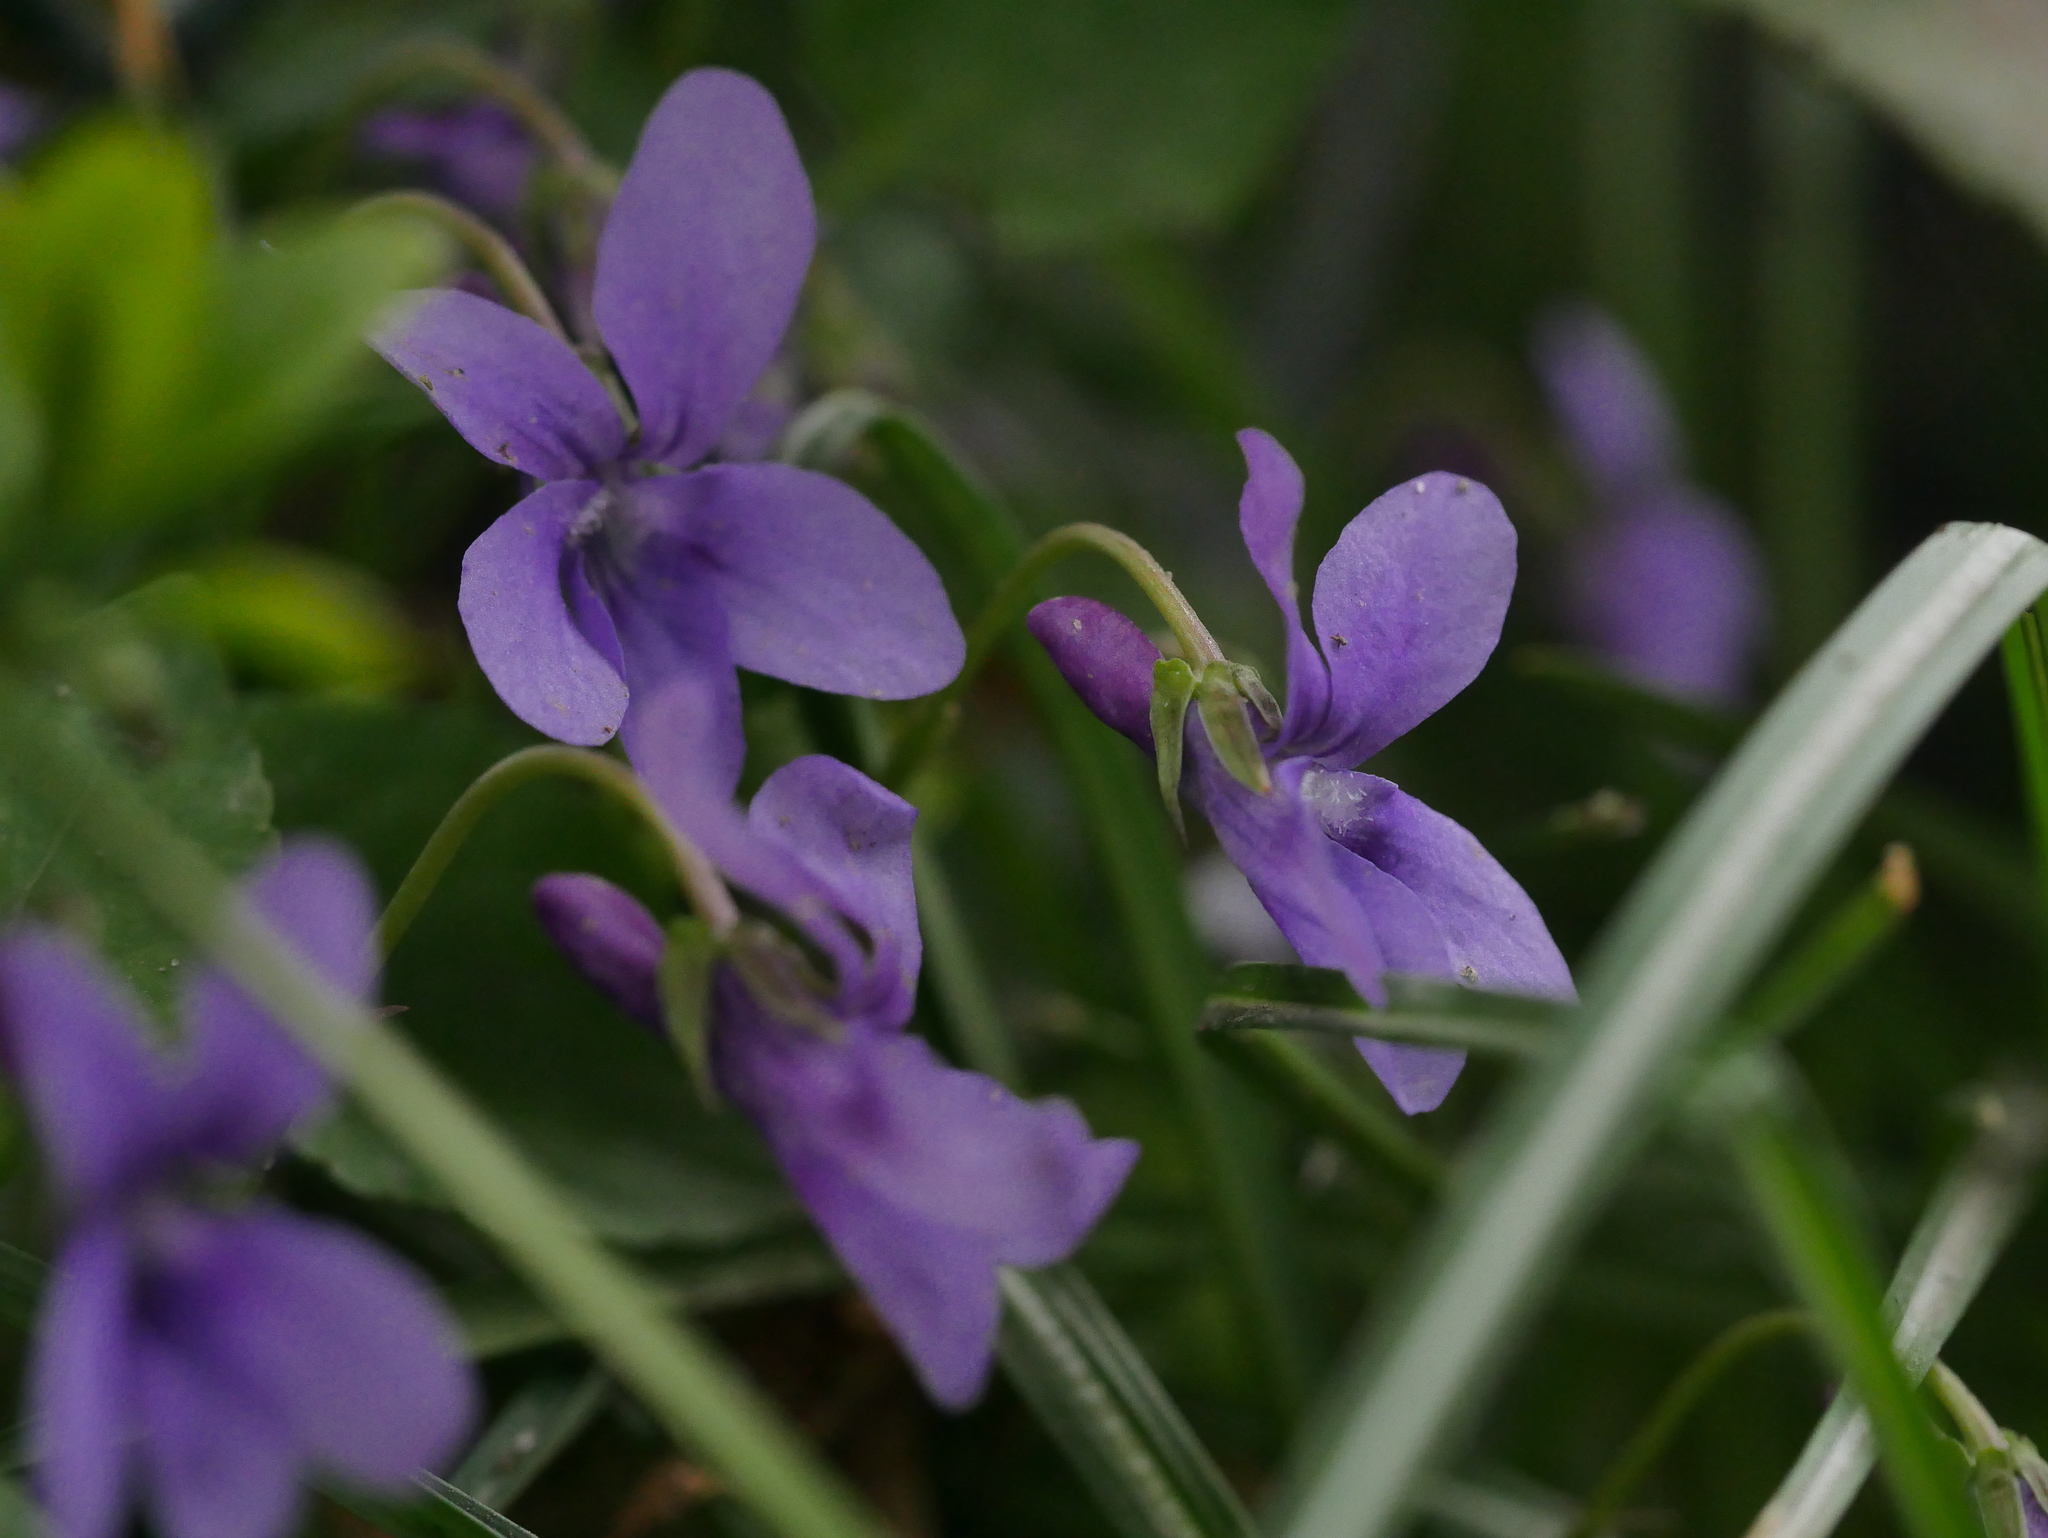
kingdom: Plantae
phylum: Tracheophyta
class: Magnoliopsida
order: Malpighiales
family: Violaceae
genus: Viola
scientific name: Viola reichenbachiana
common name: Early dog-violet
